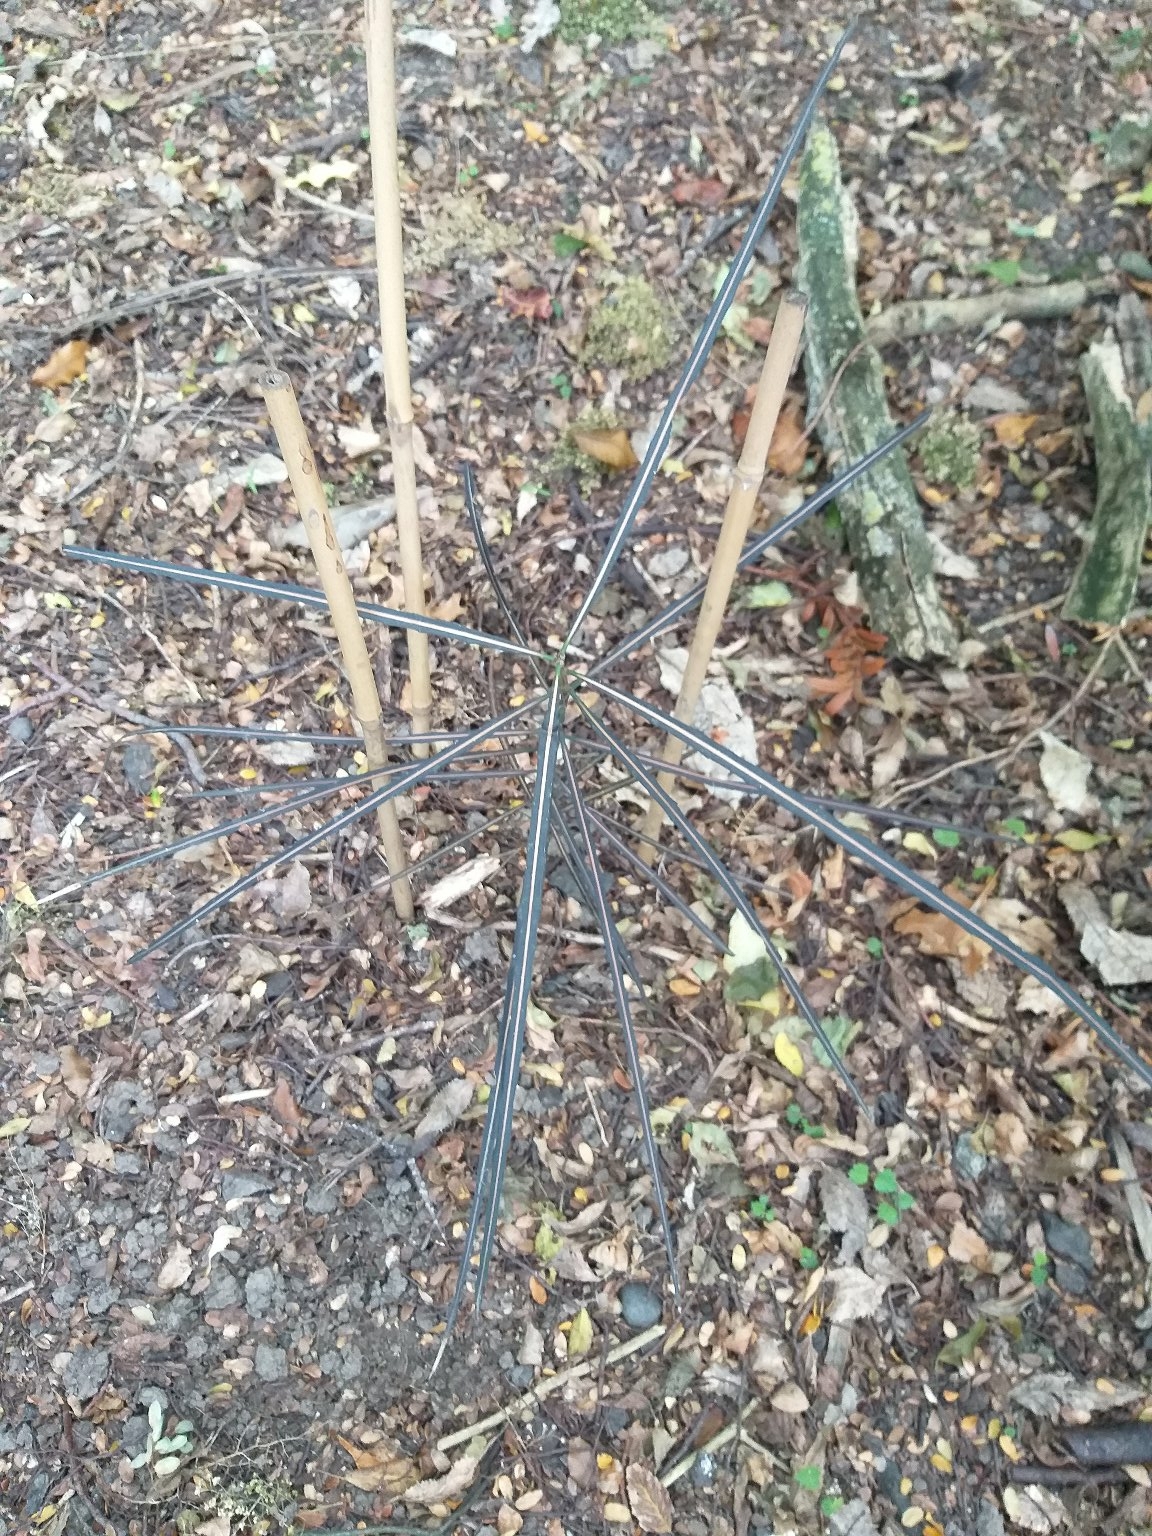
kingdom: Plantae
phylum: Tracheophyta
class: Magnoliopsida
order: Apiales
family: Araliaceae
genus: Pseudopanax
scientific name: Pseudopanax crassifolius
